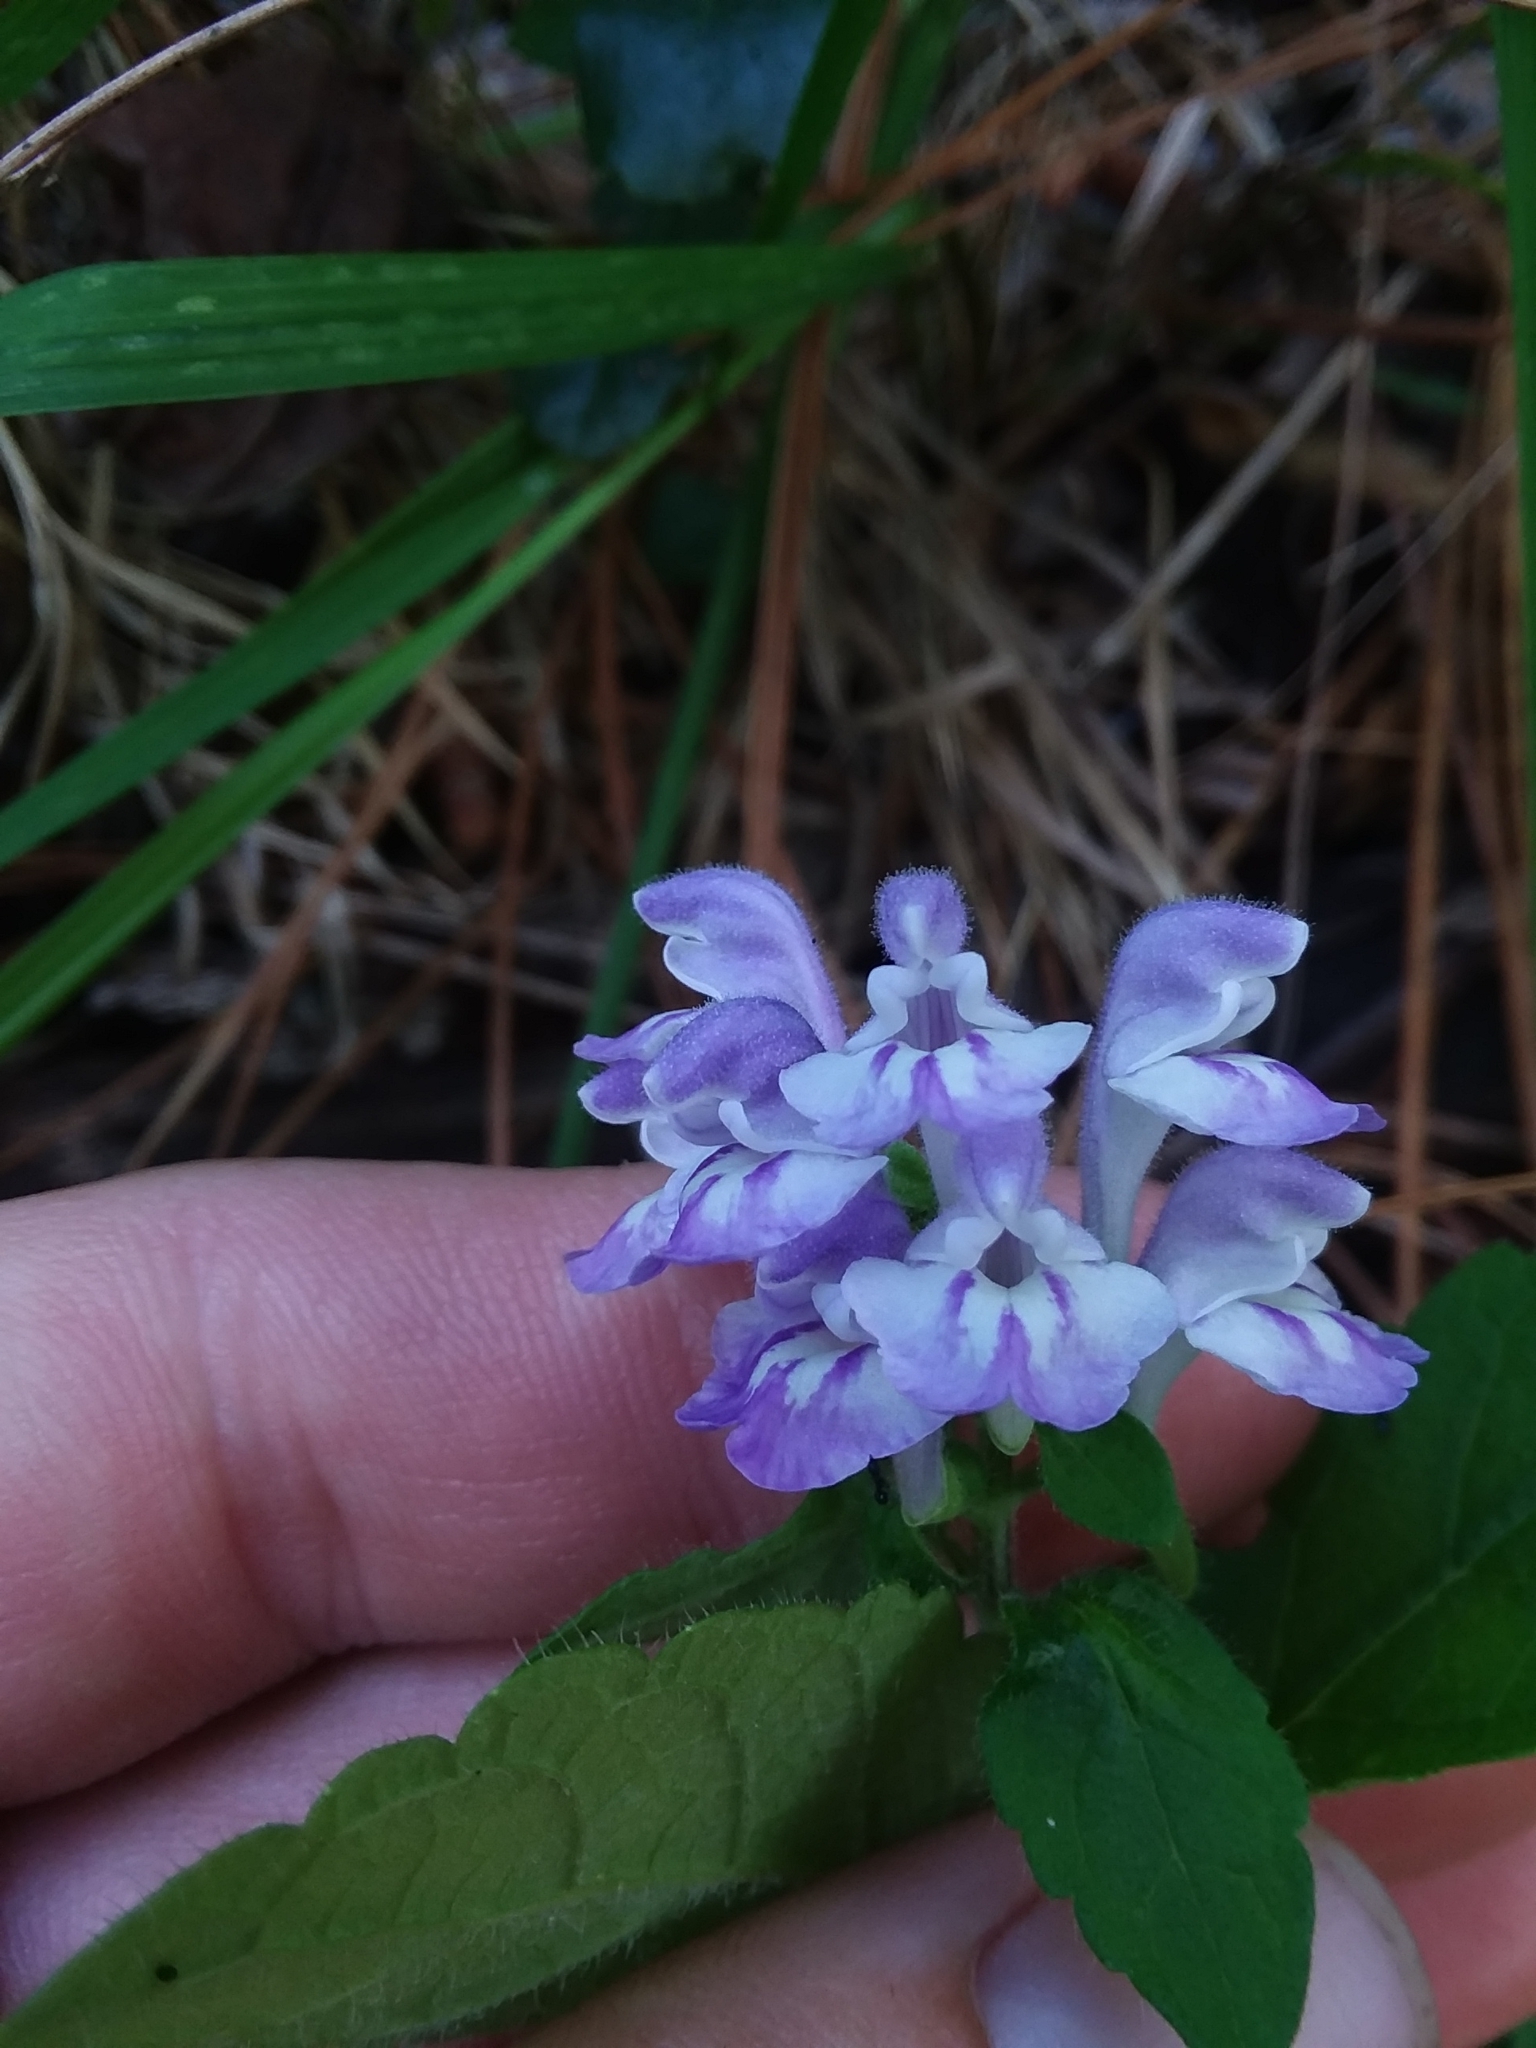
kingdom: Plantae
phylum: Tracheophyta
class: Magnoliopsida
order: Lamiales
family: Lamiaceae
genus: Scutellaria
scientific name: Scutellaria elliptica
